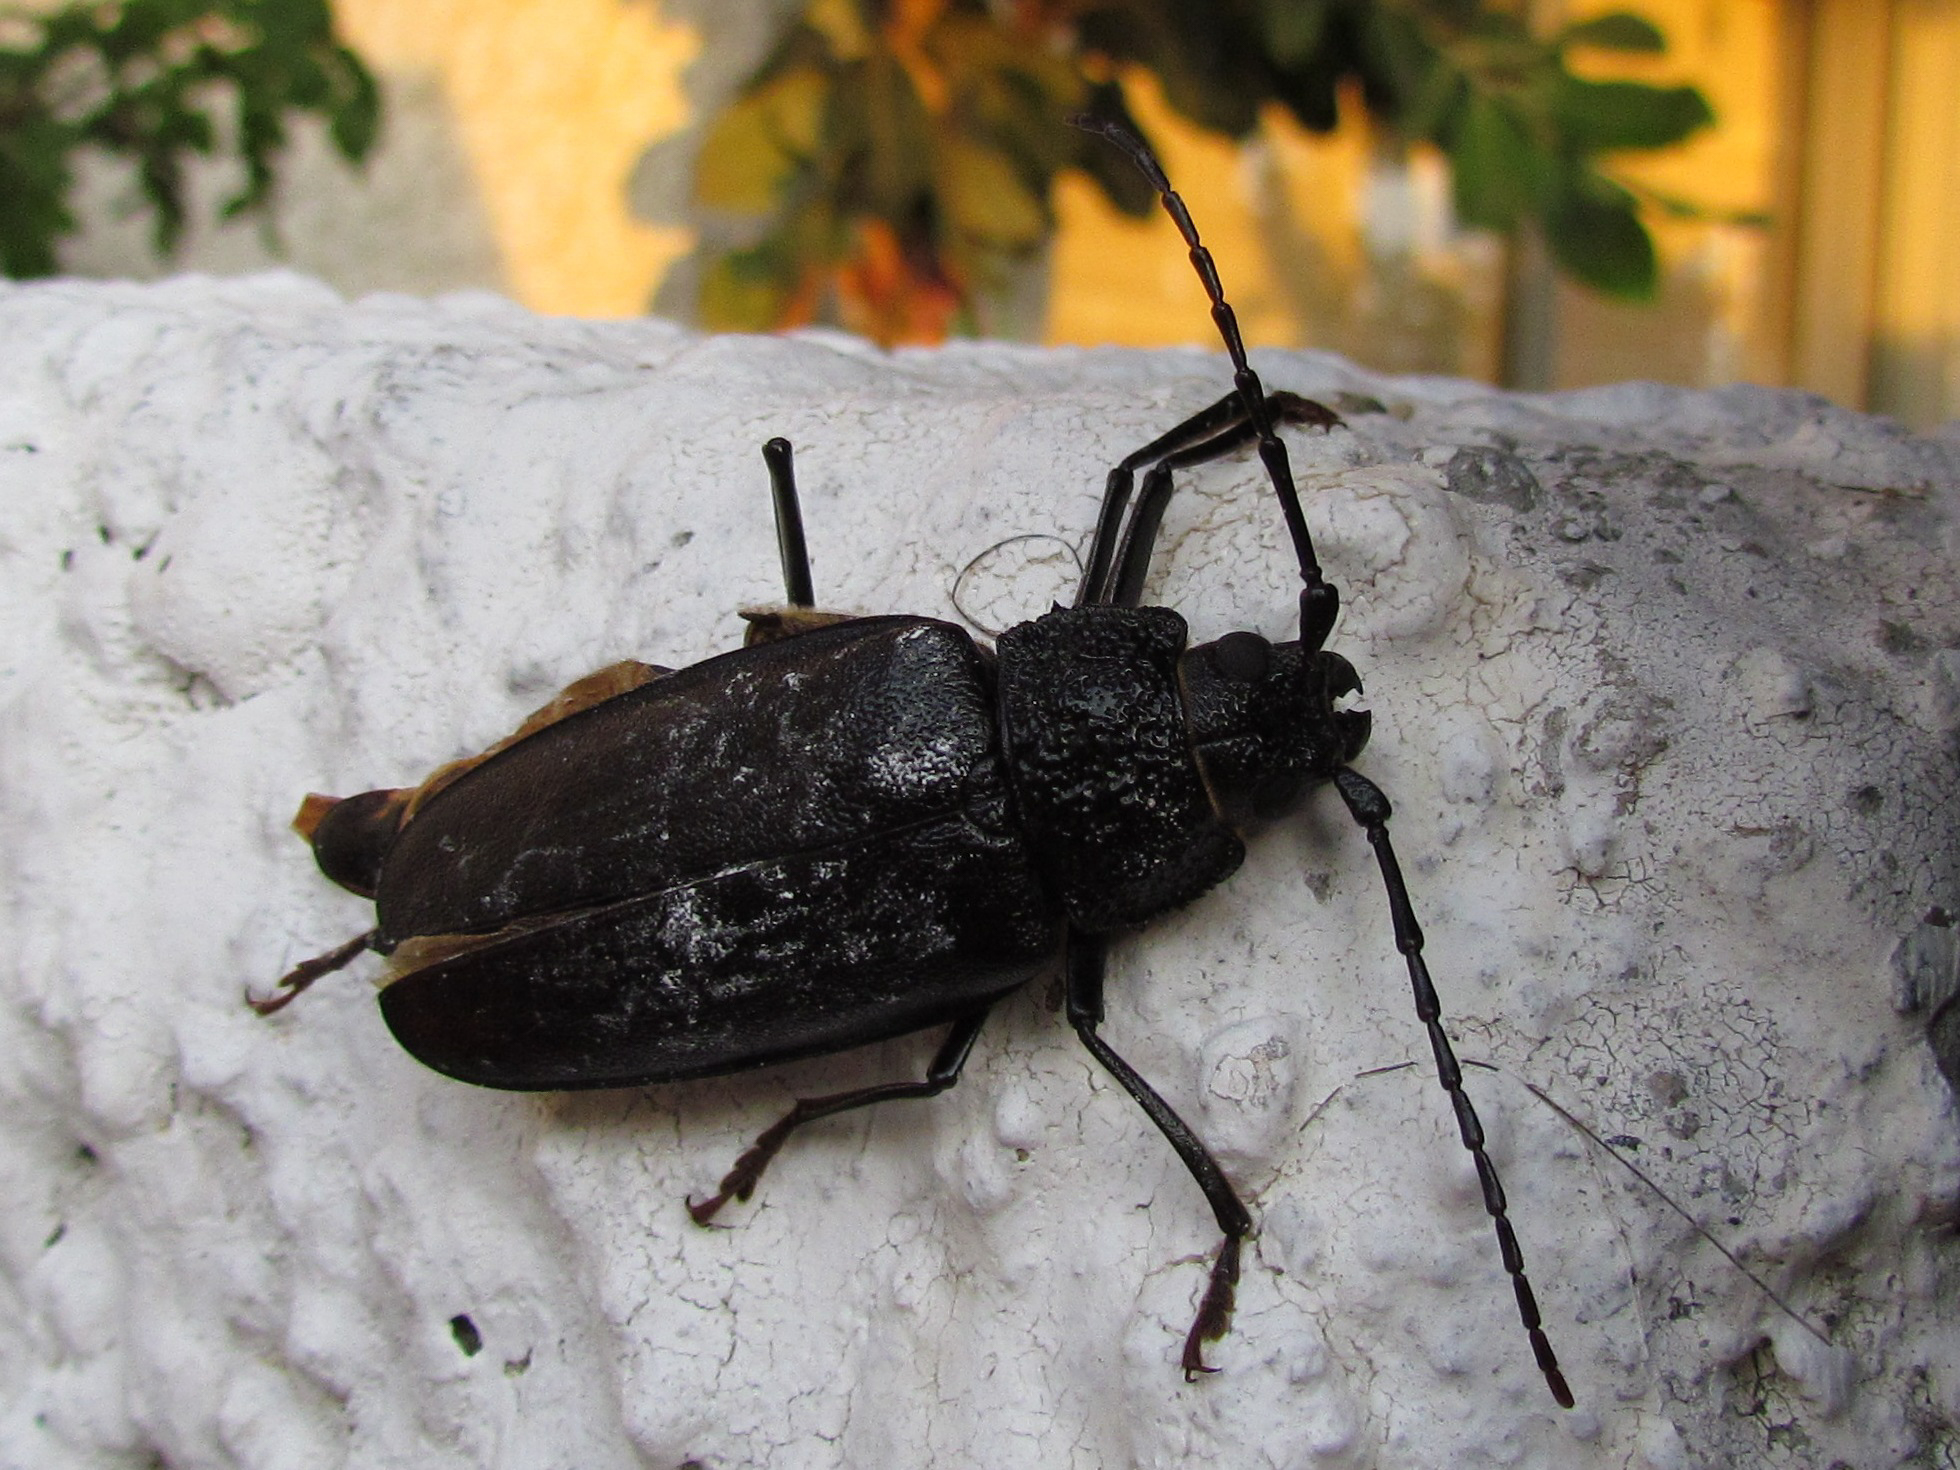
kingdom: Animalia
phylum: Arthropoda
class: Insecta
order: Coleoptera
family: Cerambycidae
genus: Ergates
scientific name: Ergates faber
